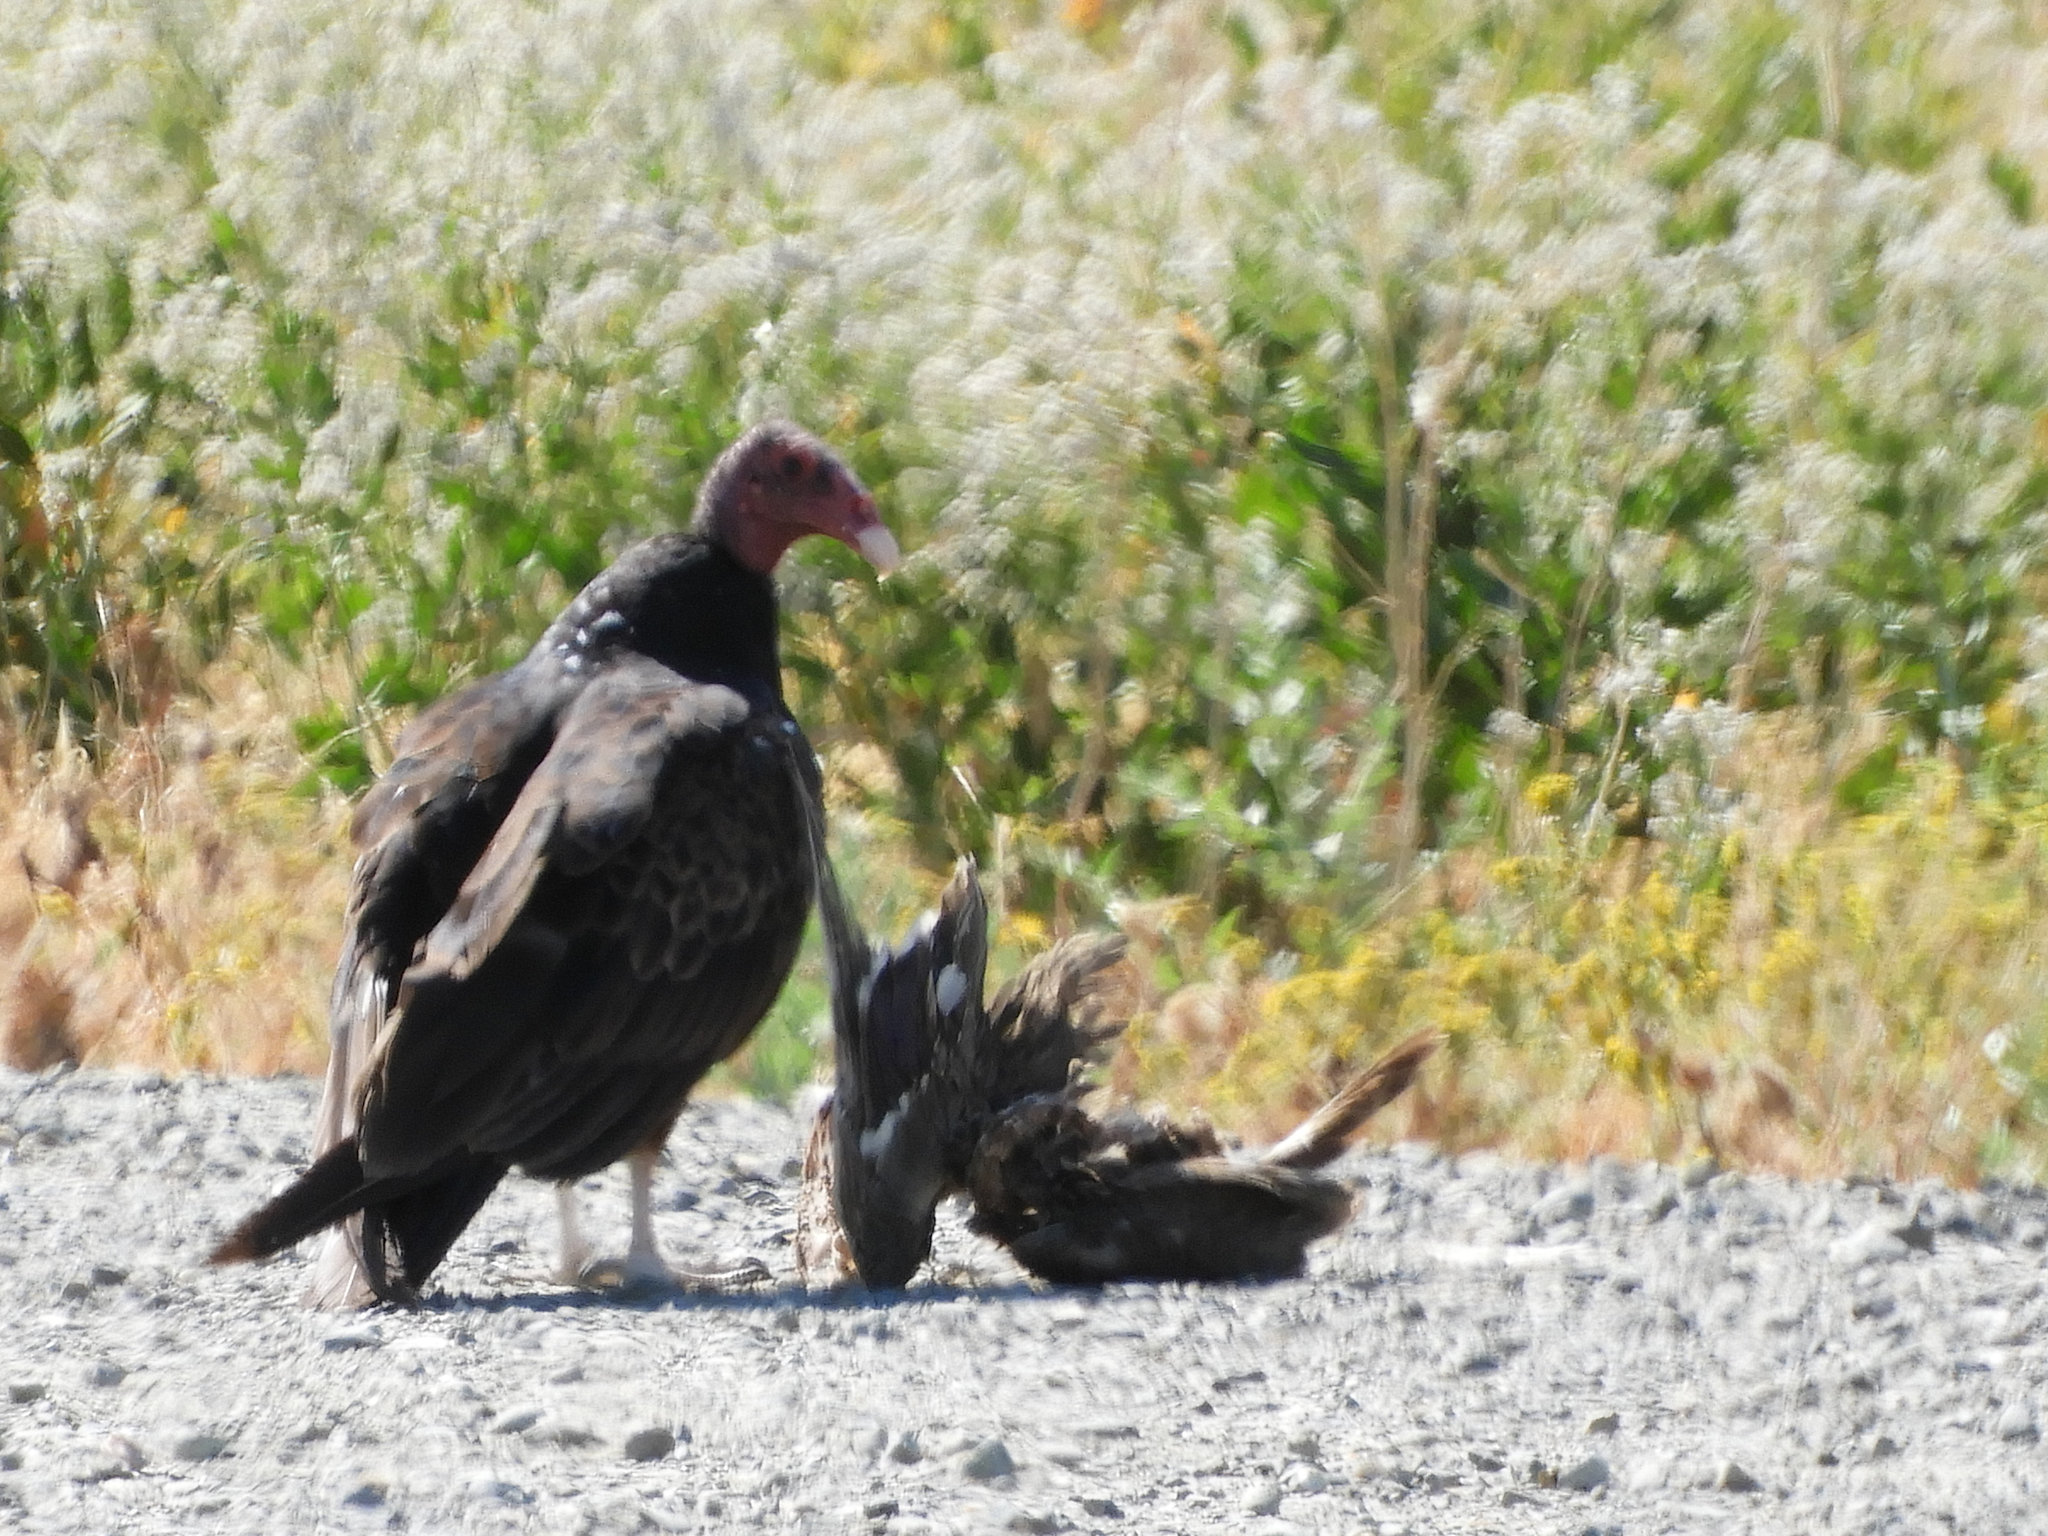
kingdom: Animalia
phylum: Chordata
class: Aves
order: Accipitriformes
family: Cathartidae
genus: Cathartes
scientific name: Cathartes aura
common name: Turkey vulture
